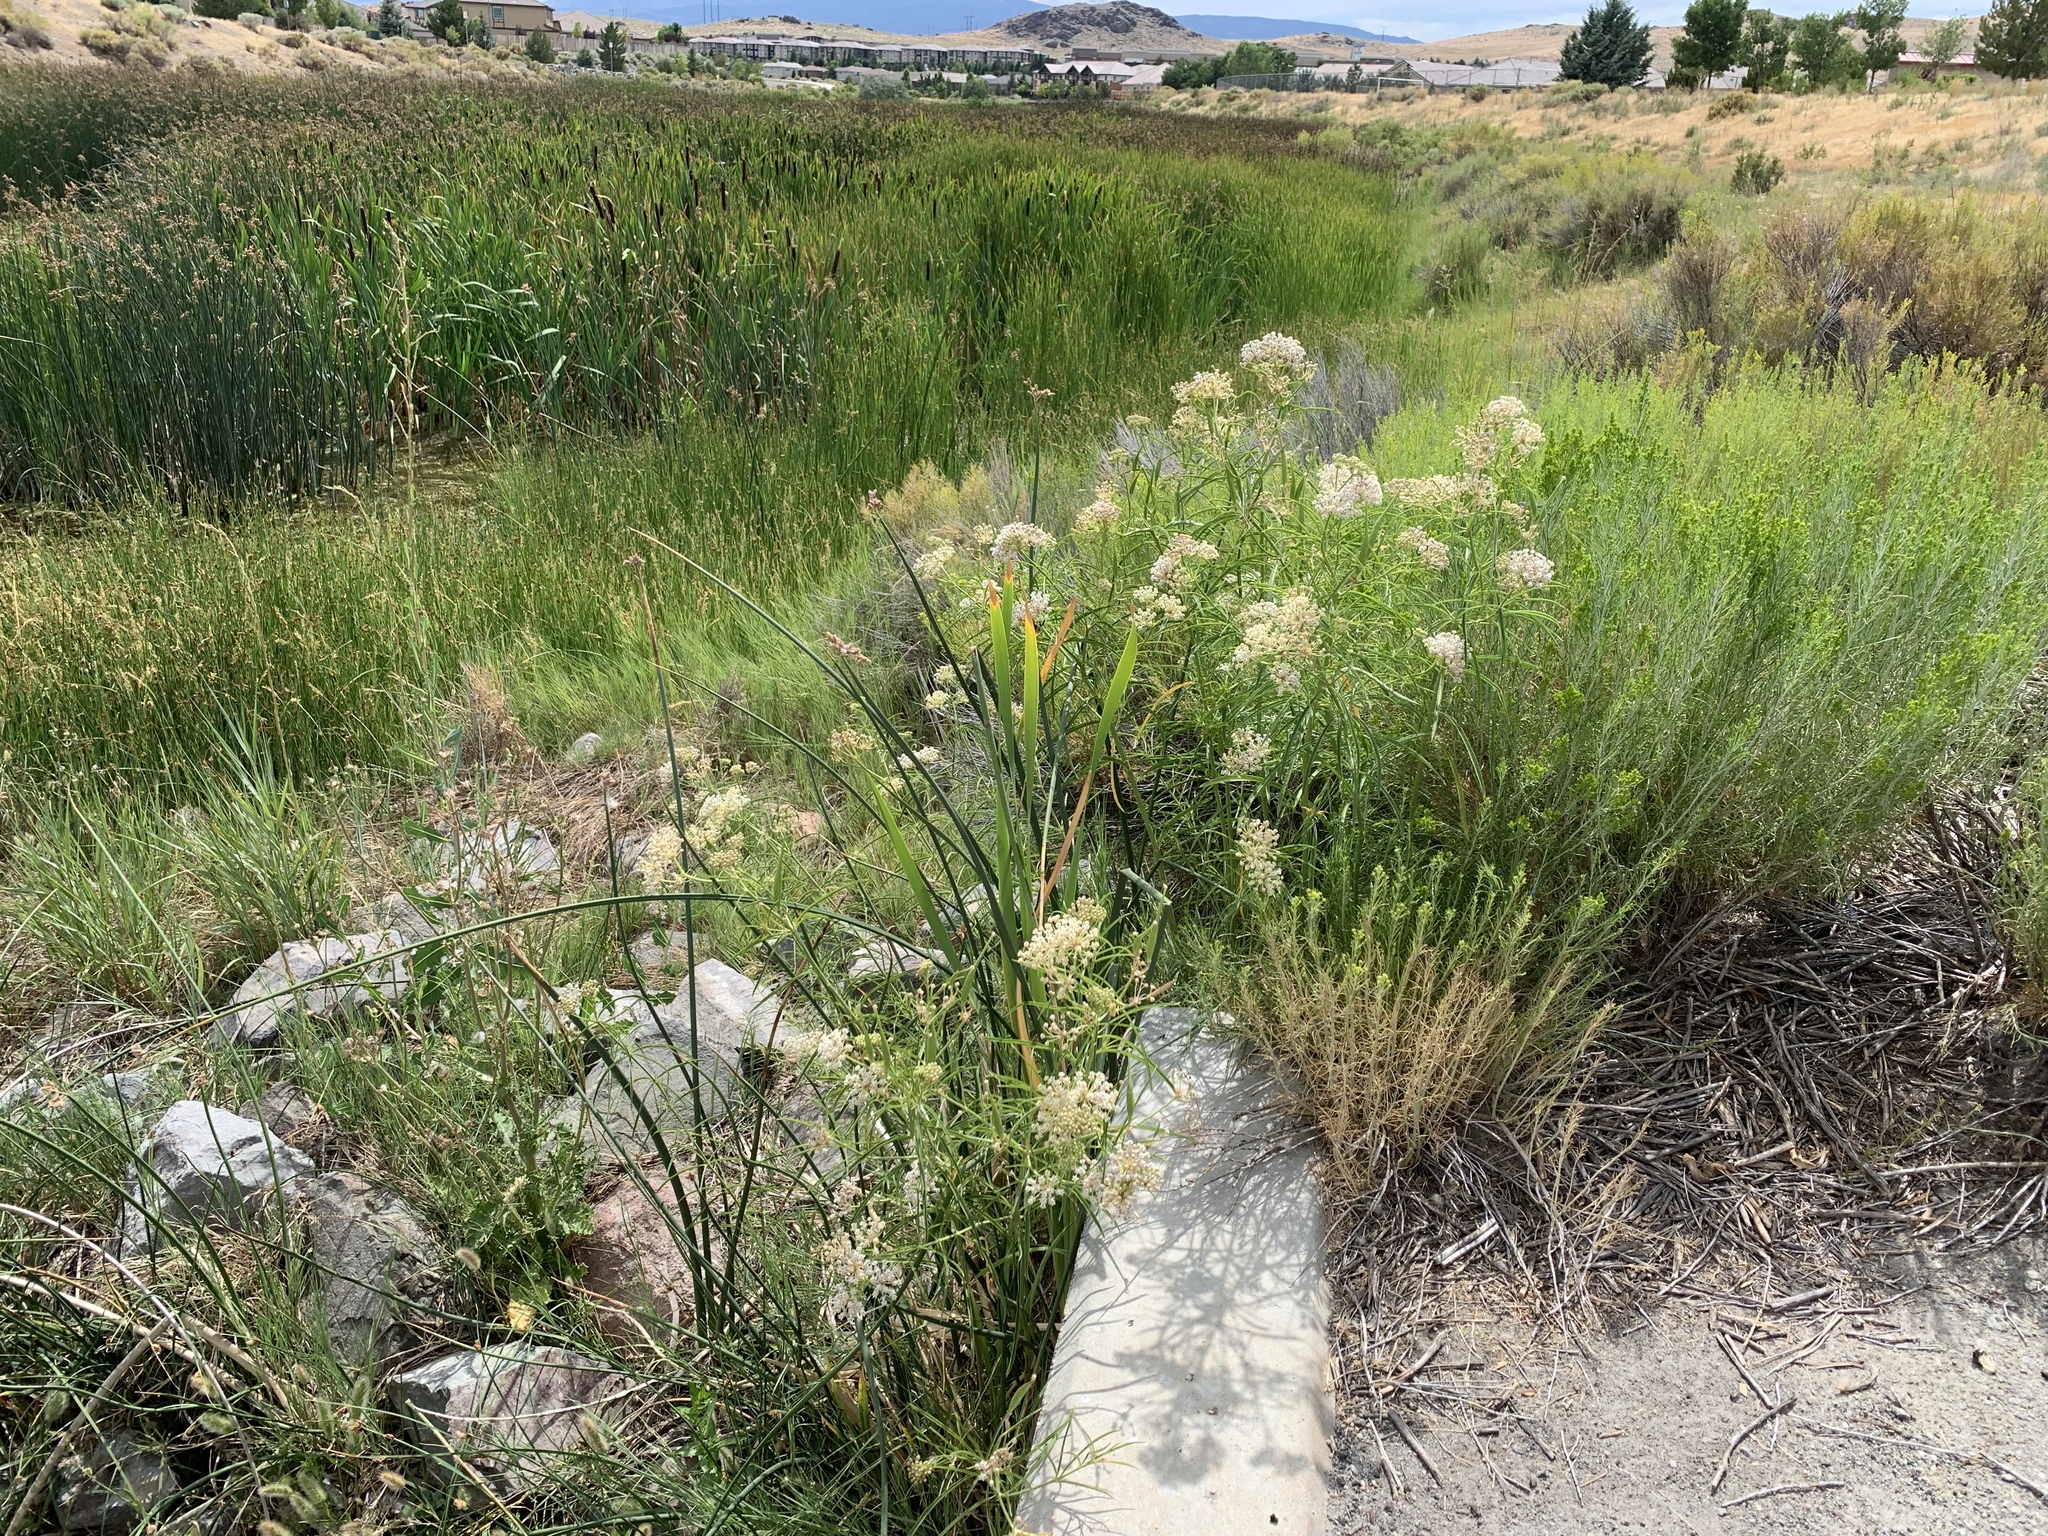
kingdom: Plantae
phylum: Tracheophyta
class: Magnoliopsida
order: Gentianales
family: Apocynaceae
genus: Asclepias
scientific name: Asclepias fascicularis
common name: Mexican milkweed
